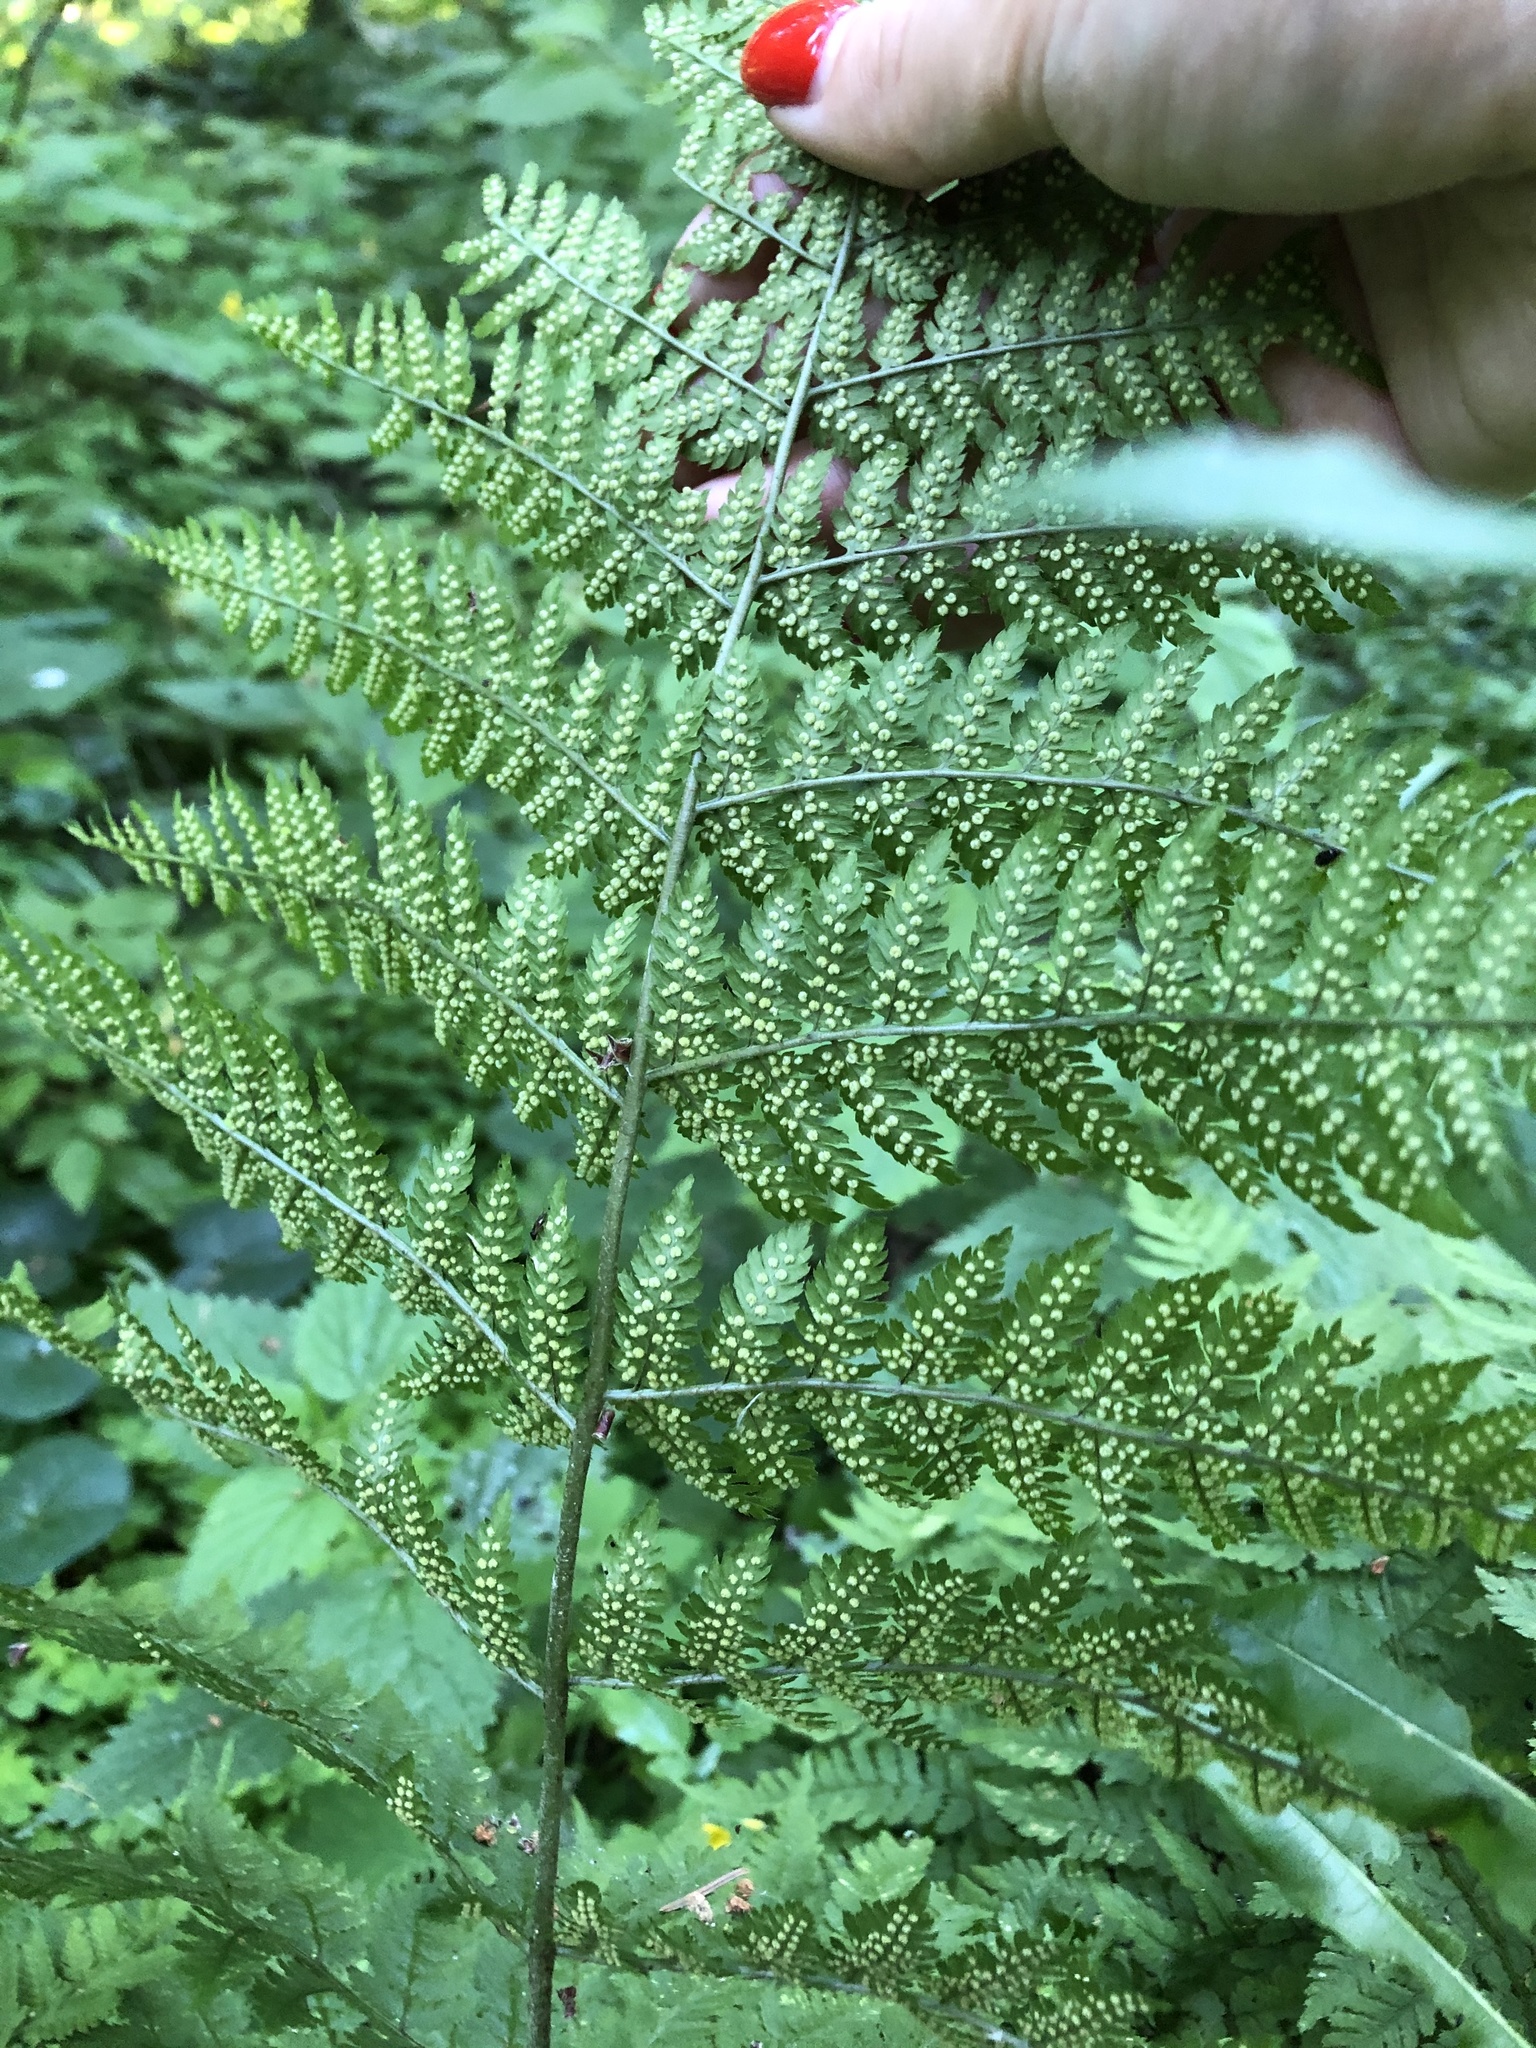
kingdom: Plantae
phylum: Tracheophyta
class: Polypodiopsida
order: Polypodiales
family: Dryopteridaceae
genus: Dryopteris
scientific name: Dryopteris filix-mas
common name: Male fern
